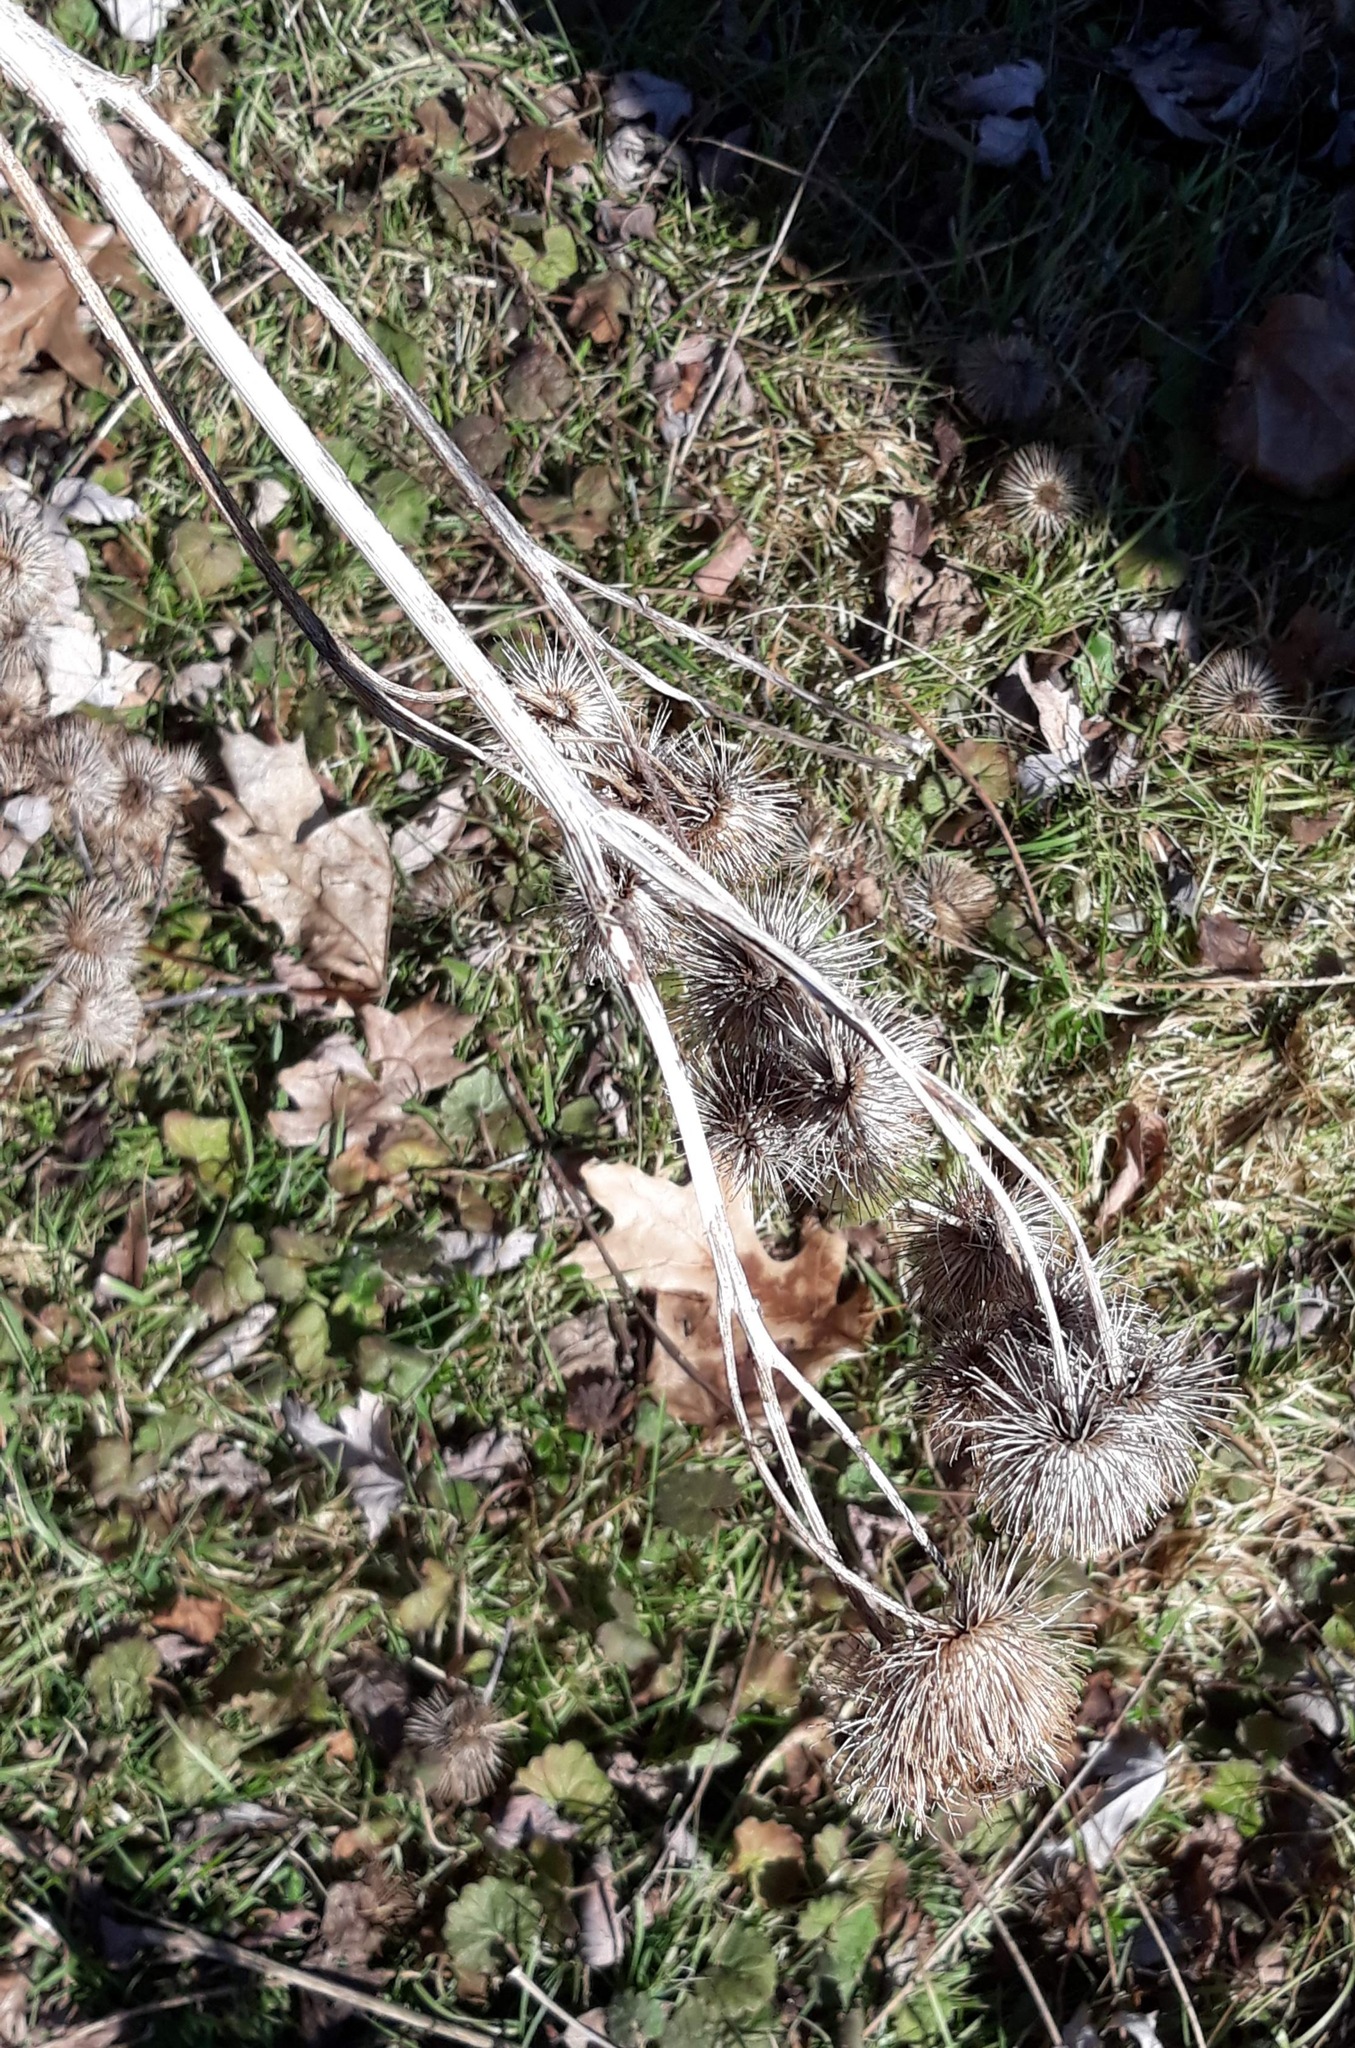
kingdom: Plantae
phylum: Tracheophyta
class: Magnoliopsida
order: Asterales
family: Asteraceae
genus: Arctium
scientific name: Arctium lappa
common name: Greater burdock
